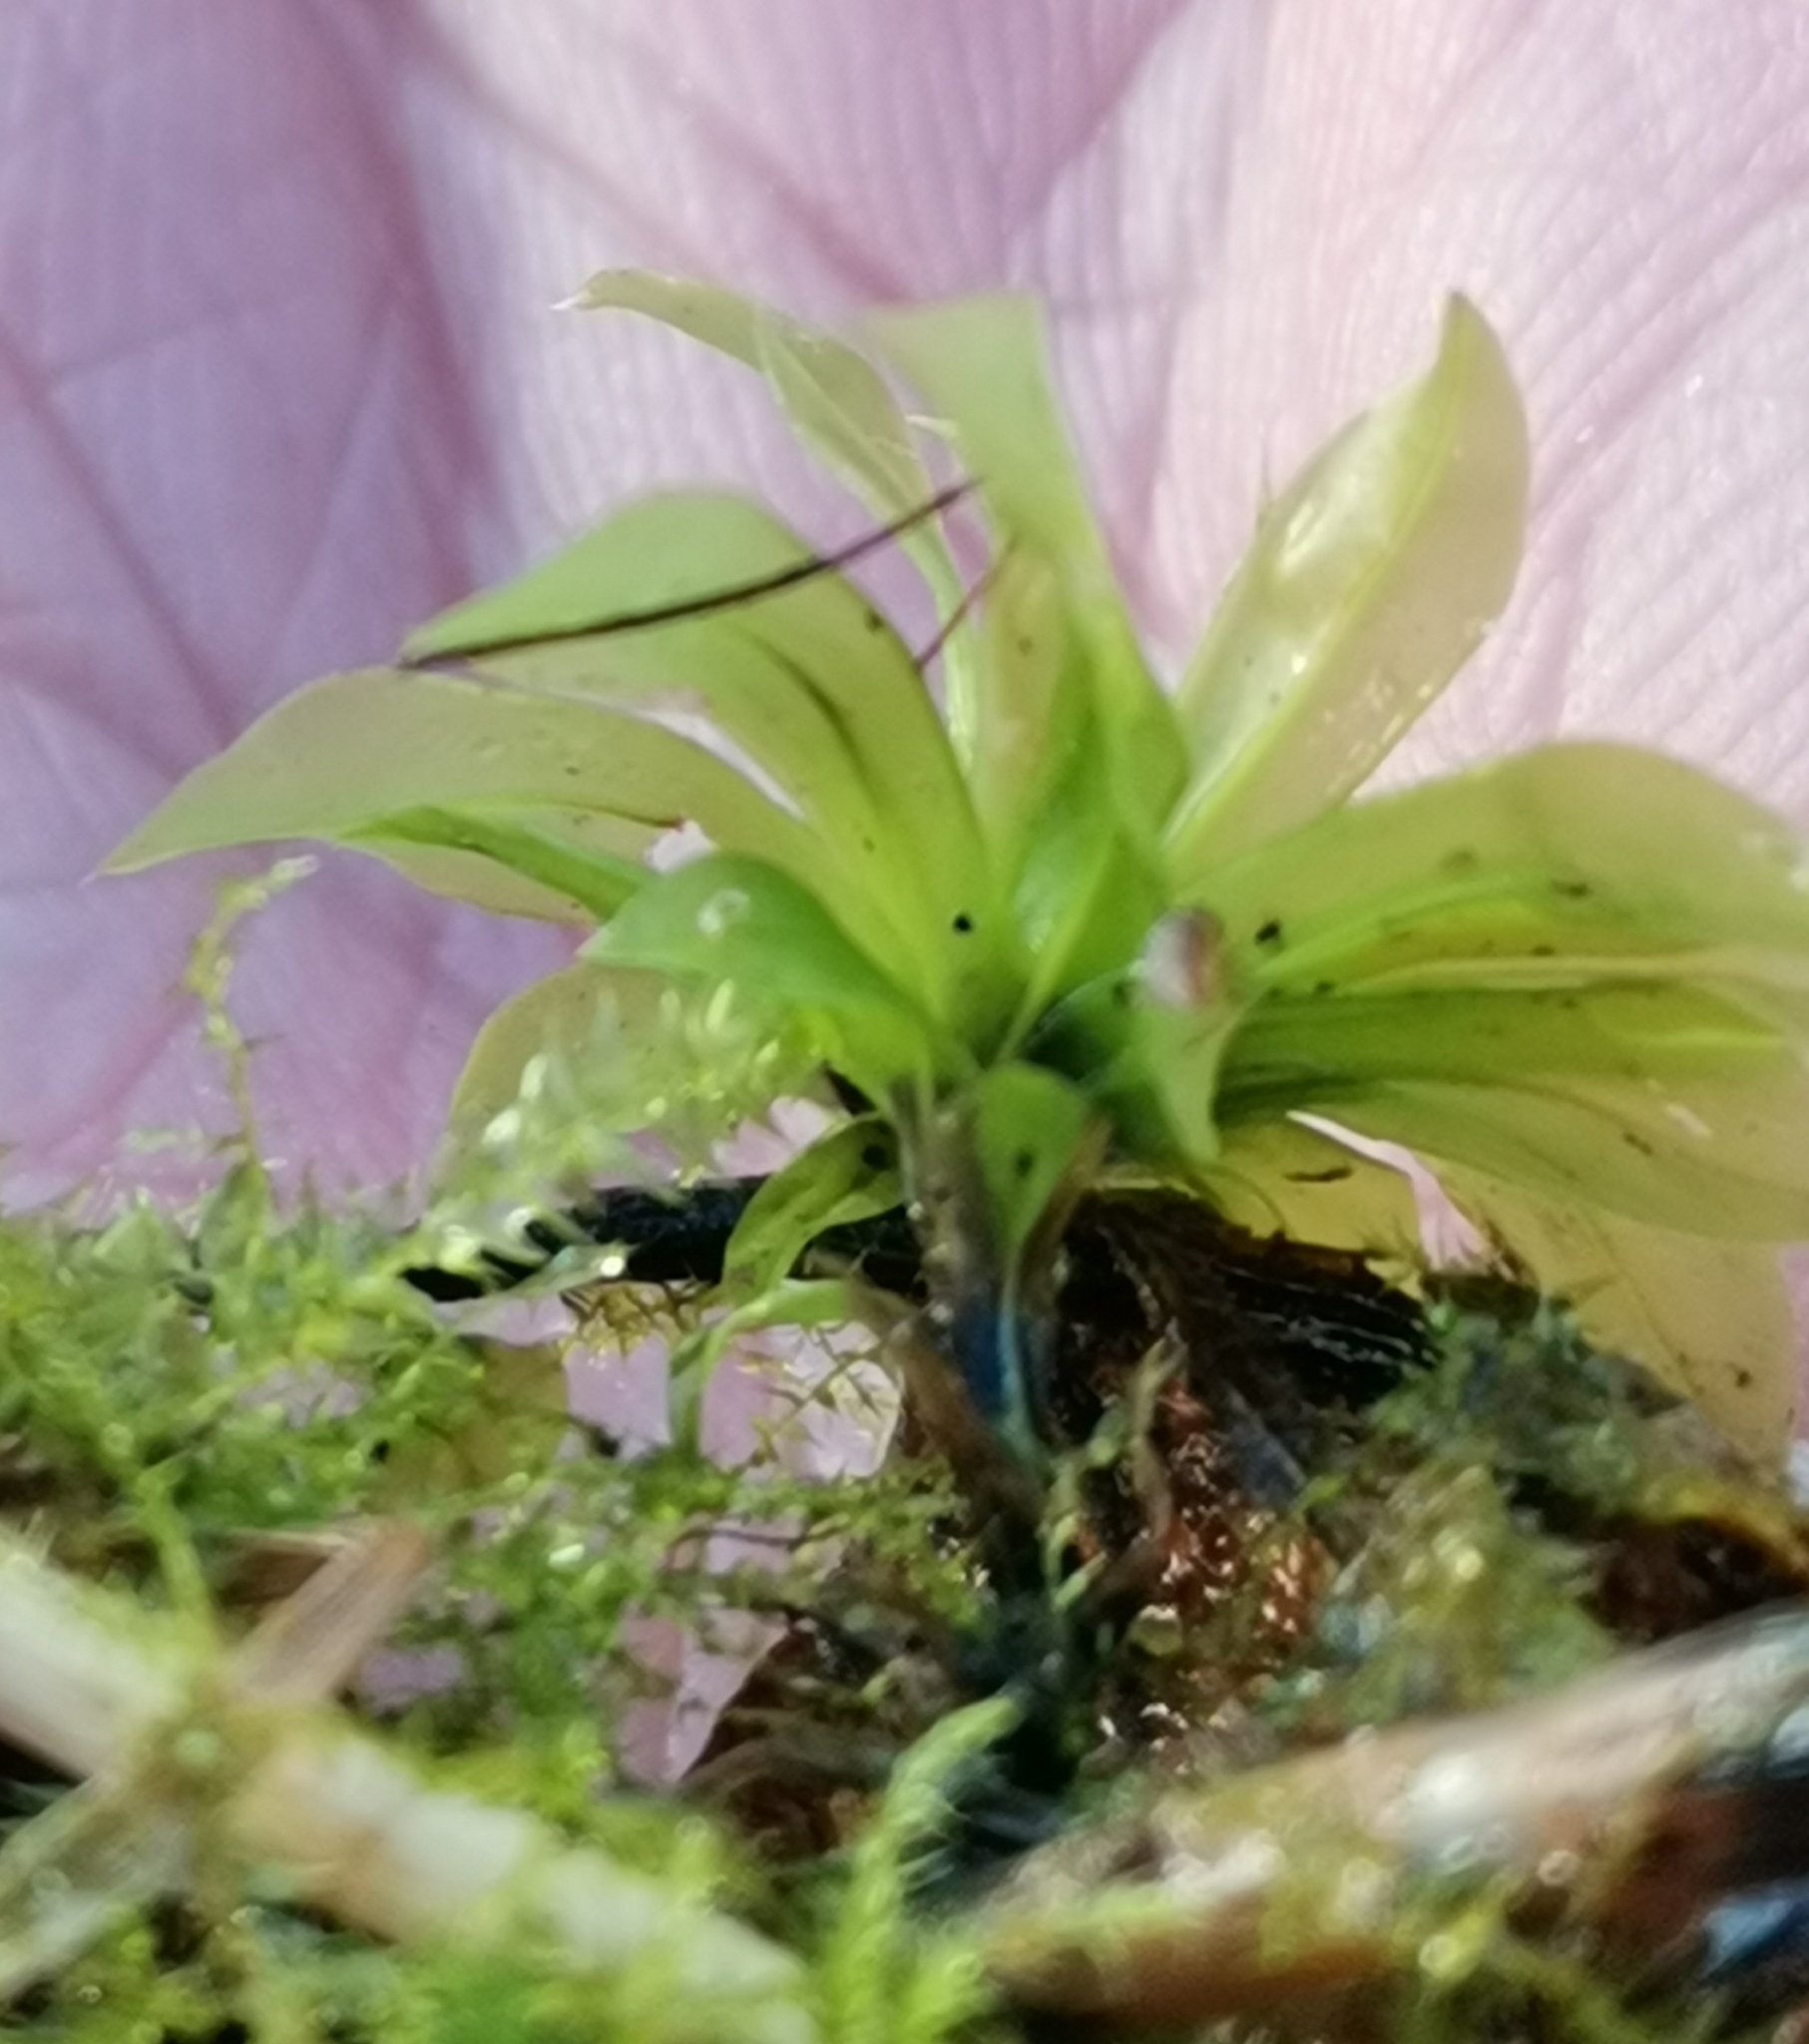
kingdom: Plantae
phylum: Bryophyta
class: Bryopsida
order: Bryales
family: Bryaceae
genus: Rhodobryum
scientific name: Rhodobryum roseum
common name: Rose-moss
